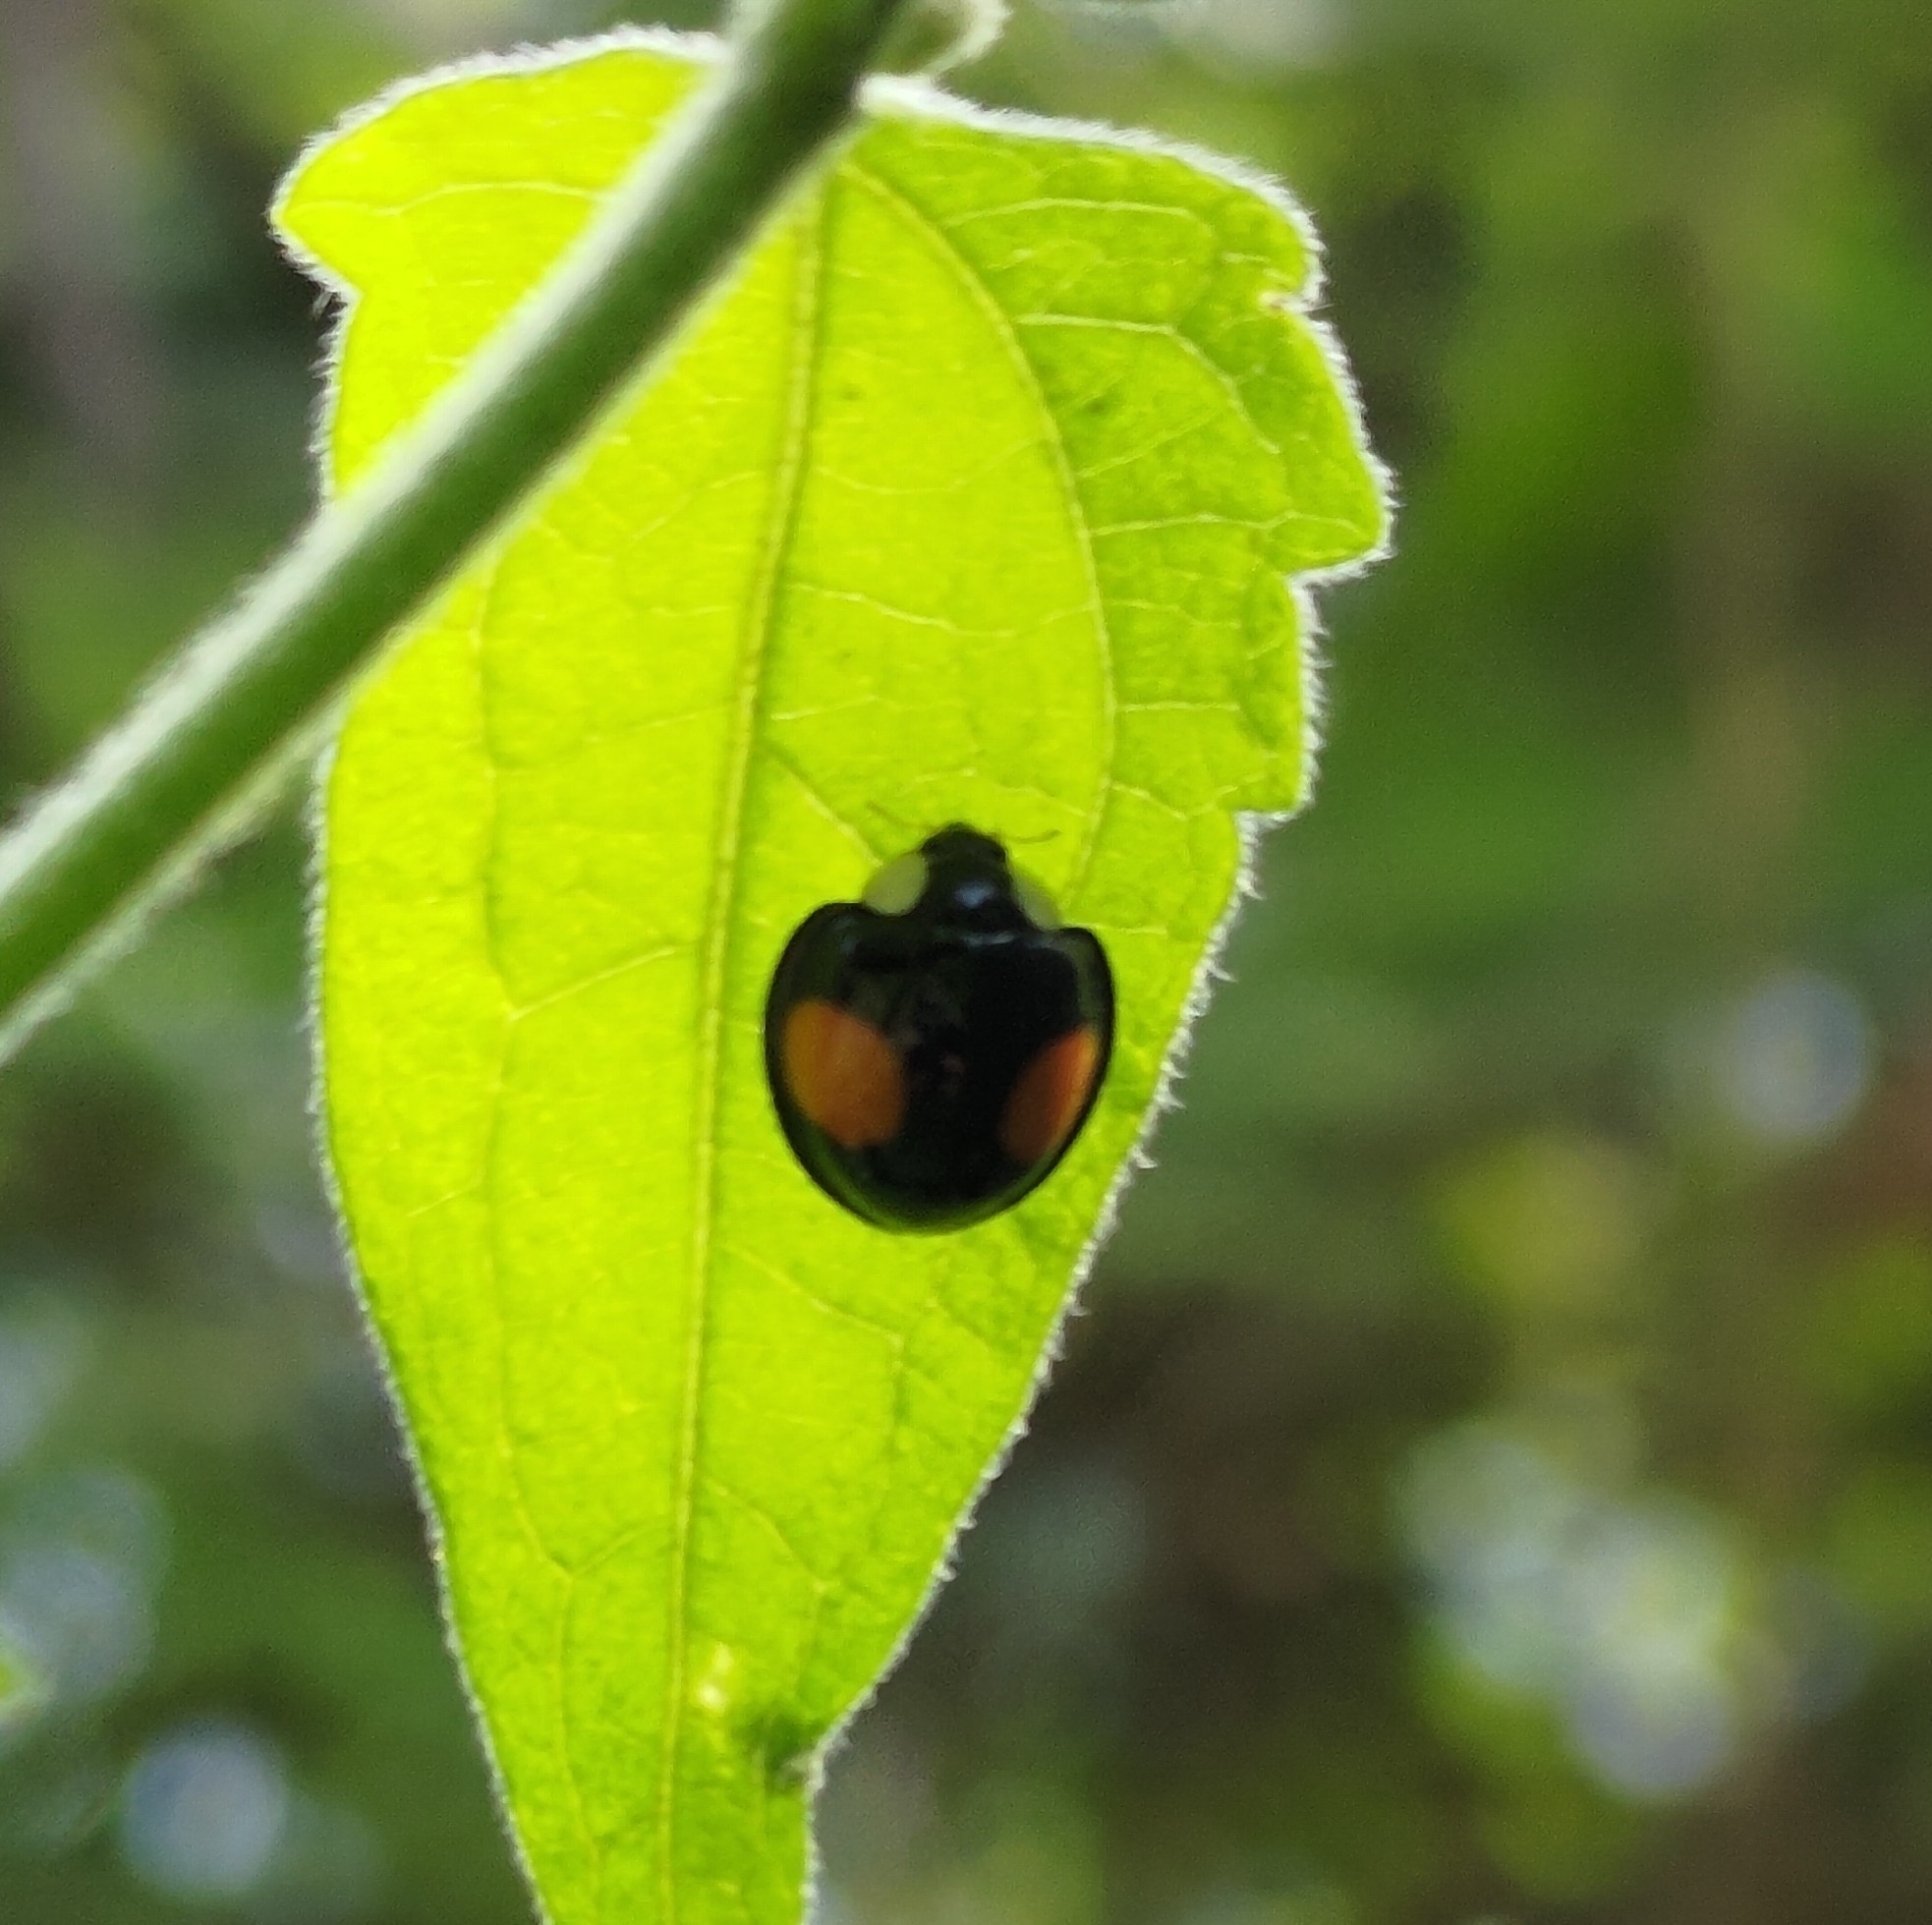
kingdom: Animalia
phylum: Arthropoda
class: Insecta
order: Coleoptera
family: Coccinellidae
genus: Coelophora
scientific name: Coelophora saucia
